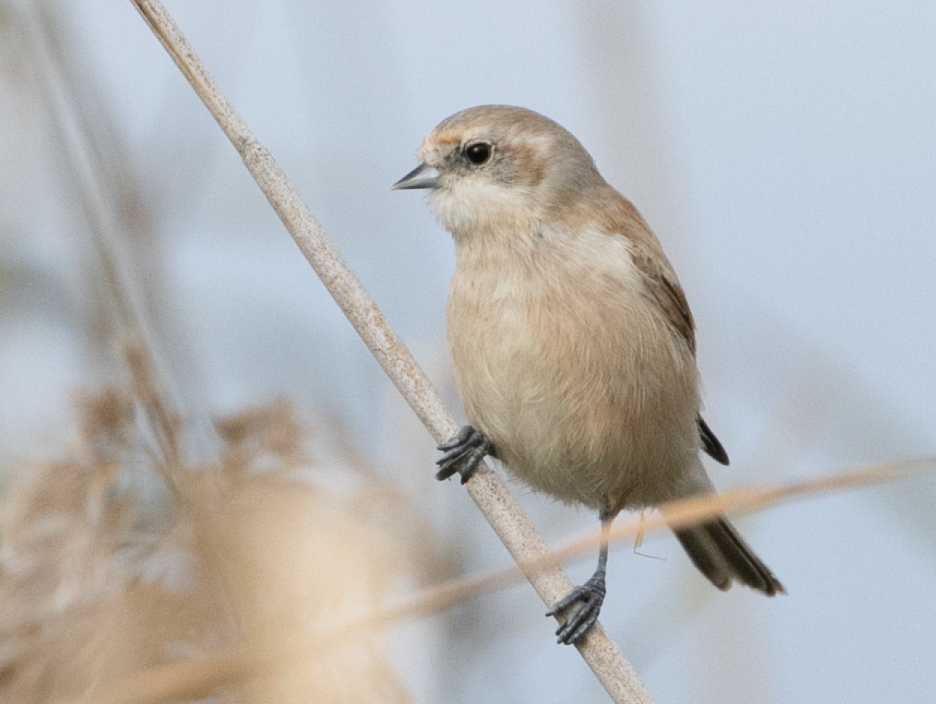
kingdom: Animalia
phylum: Chordata
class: Aves
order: Passeriformes
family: Remizidae
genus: Remiz
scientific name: Remiz pendulinus
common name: Eurasian penduline tit
